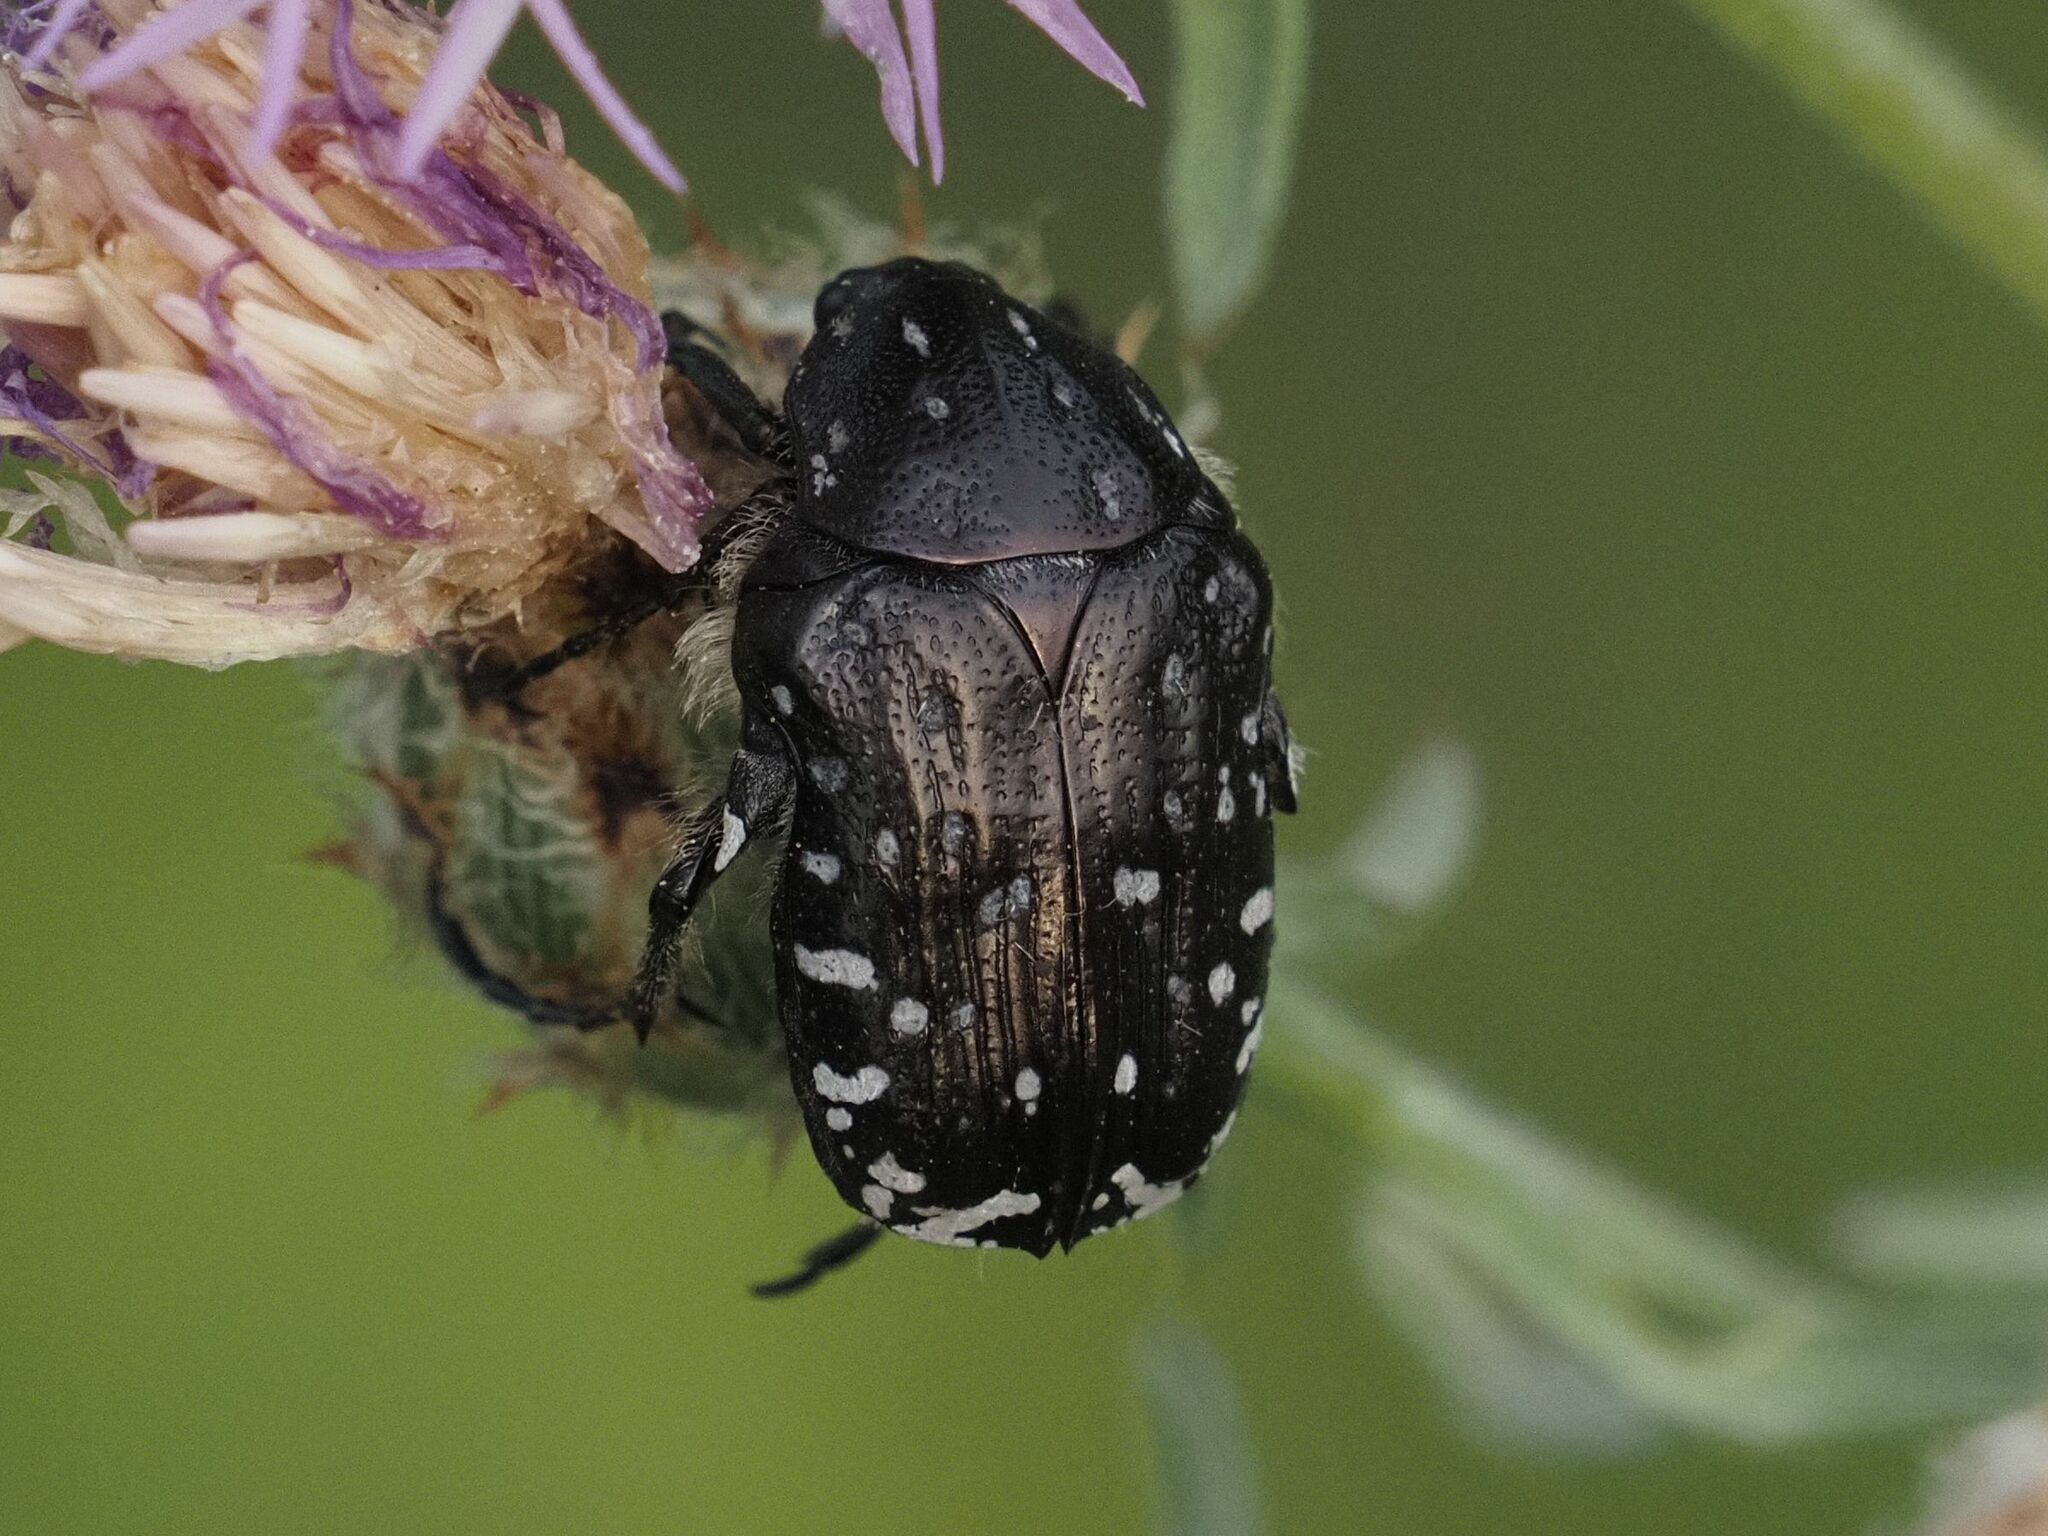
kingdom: Animalia
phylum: Arthropoda
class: Insecta
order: Coleoptera
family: Scarabaeidae
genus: Oxythyrea
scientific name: Oxythyrea funesta
